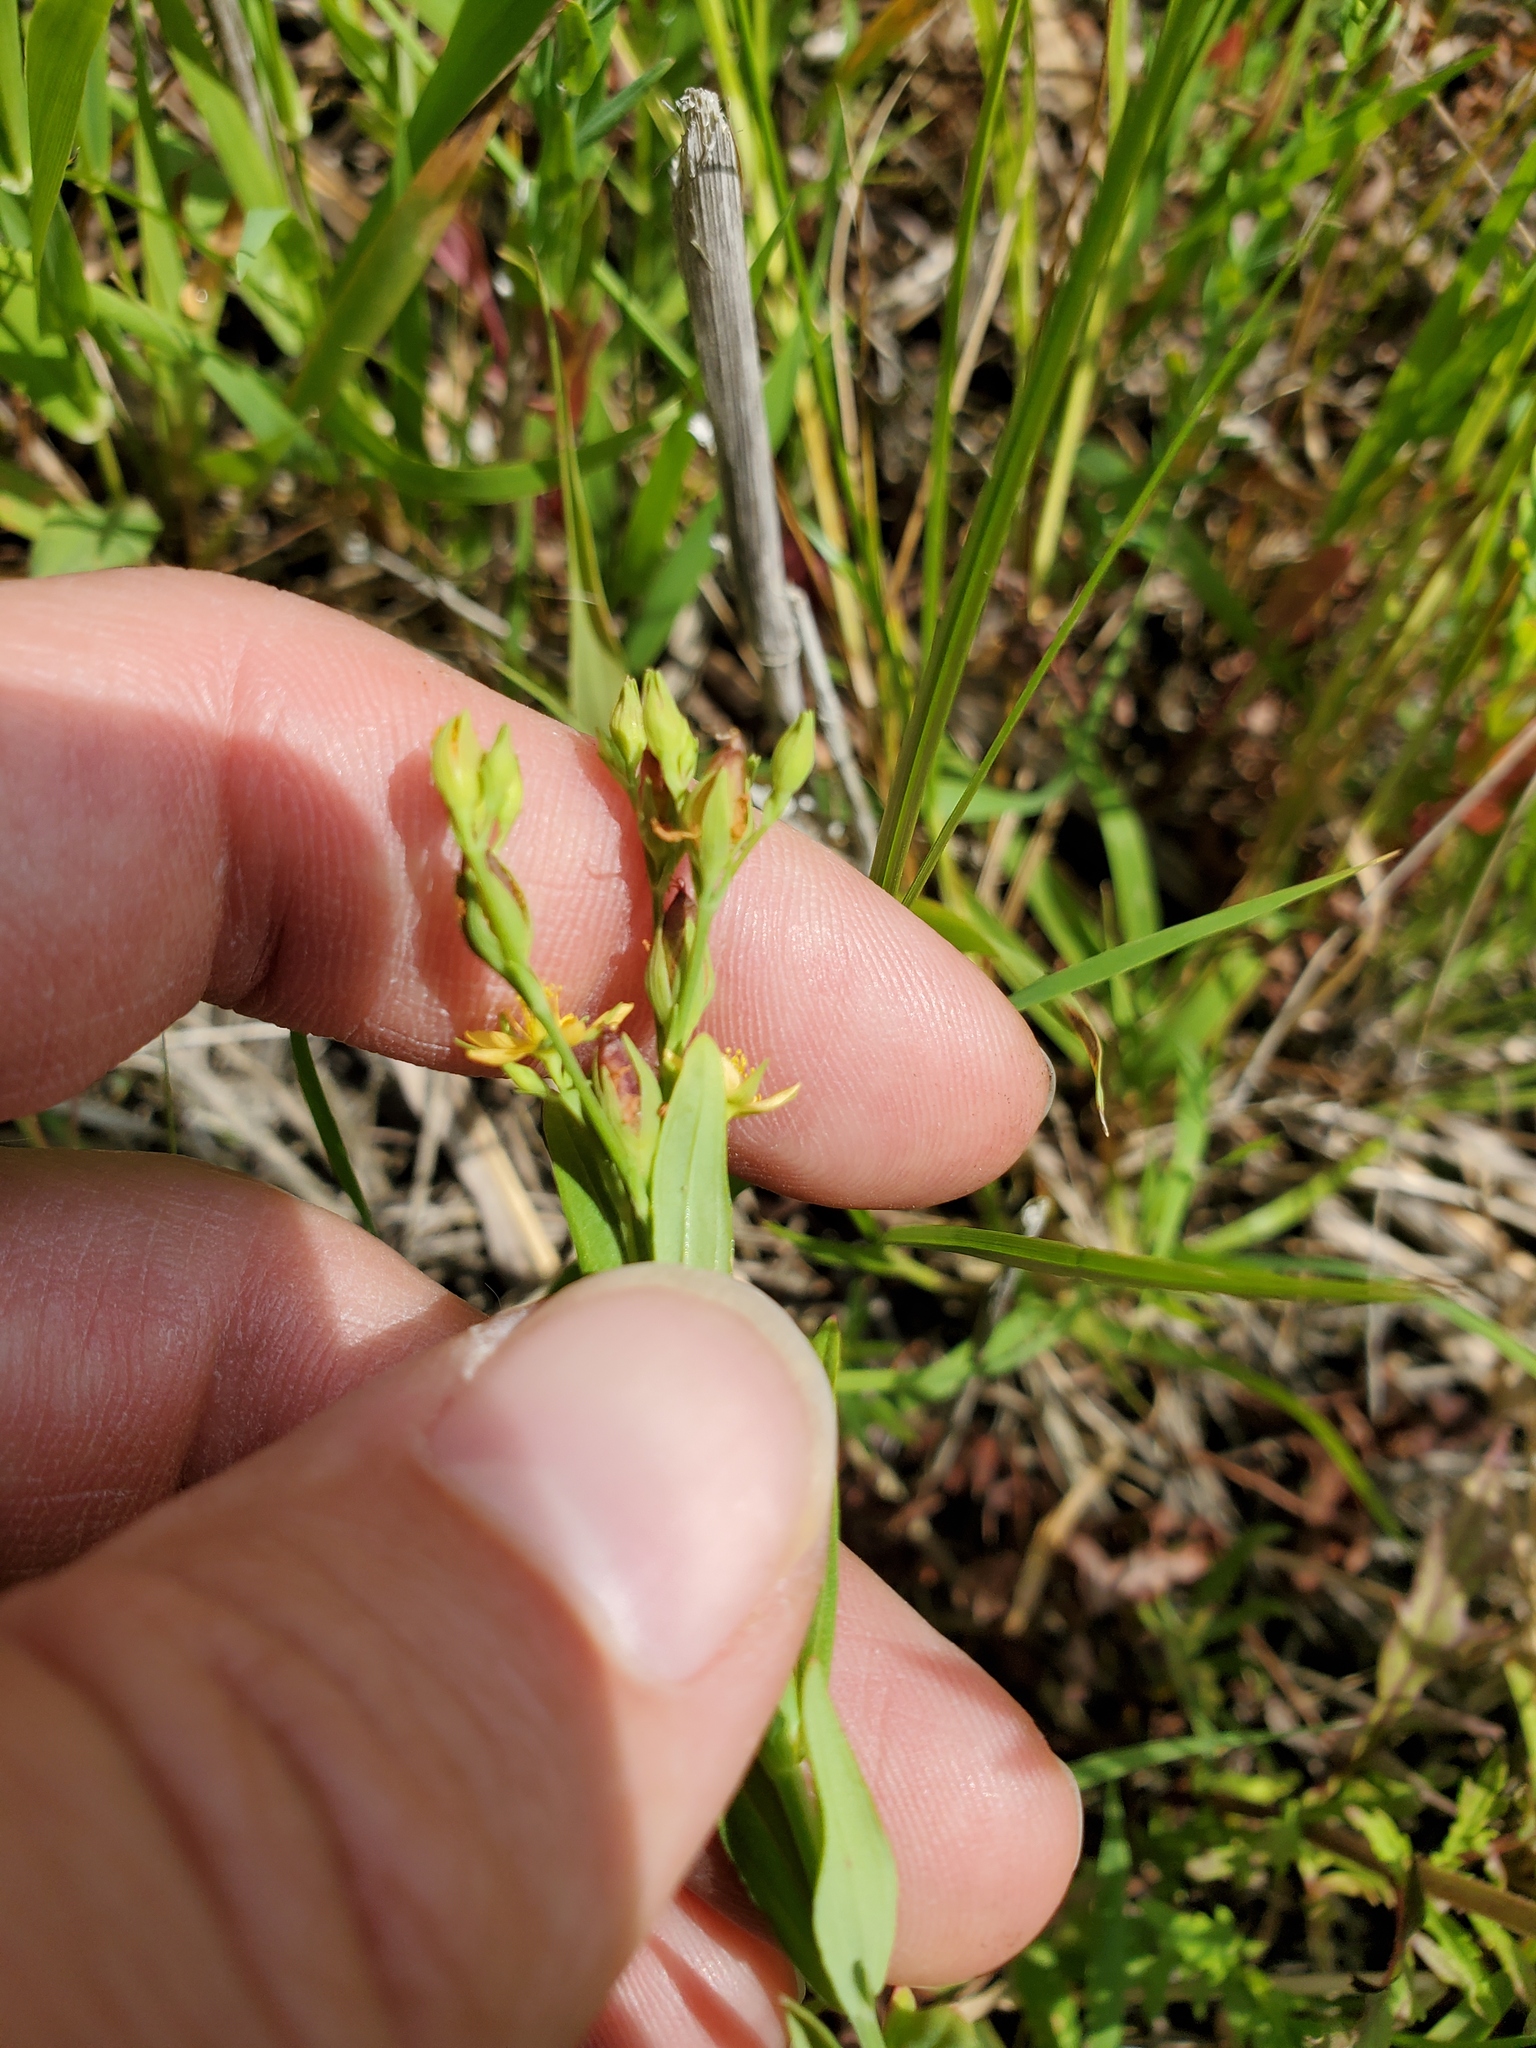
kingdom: Plantae
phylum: Tracheophyta
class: Magnoliopsida
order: Malpighiales
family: Hypericaceae
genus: Hypericum
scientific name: Hypericum majus
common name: Greater canadian st. john's-wort
